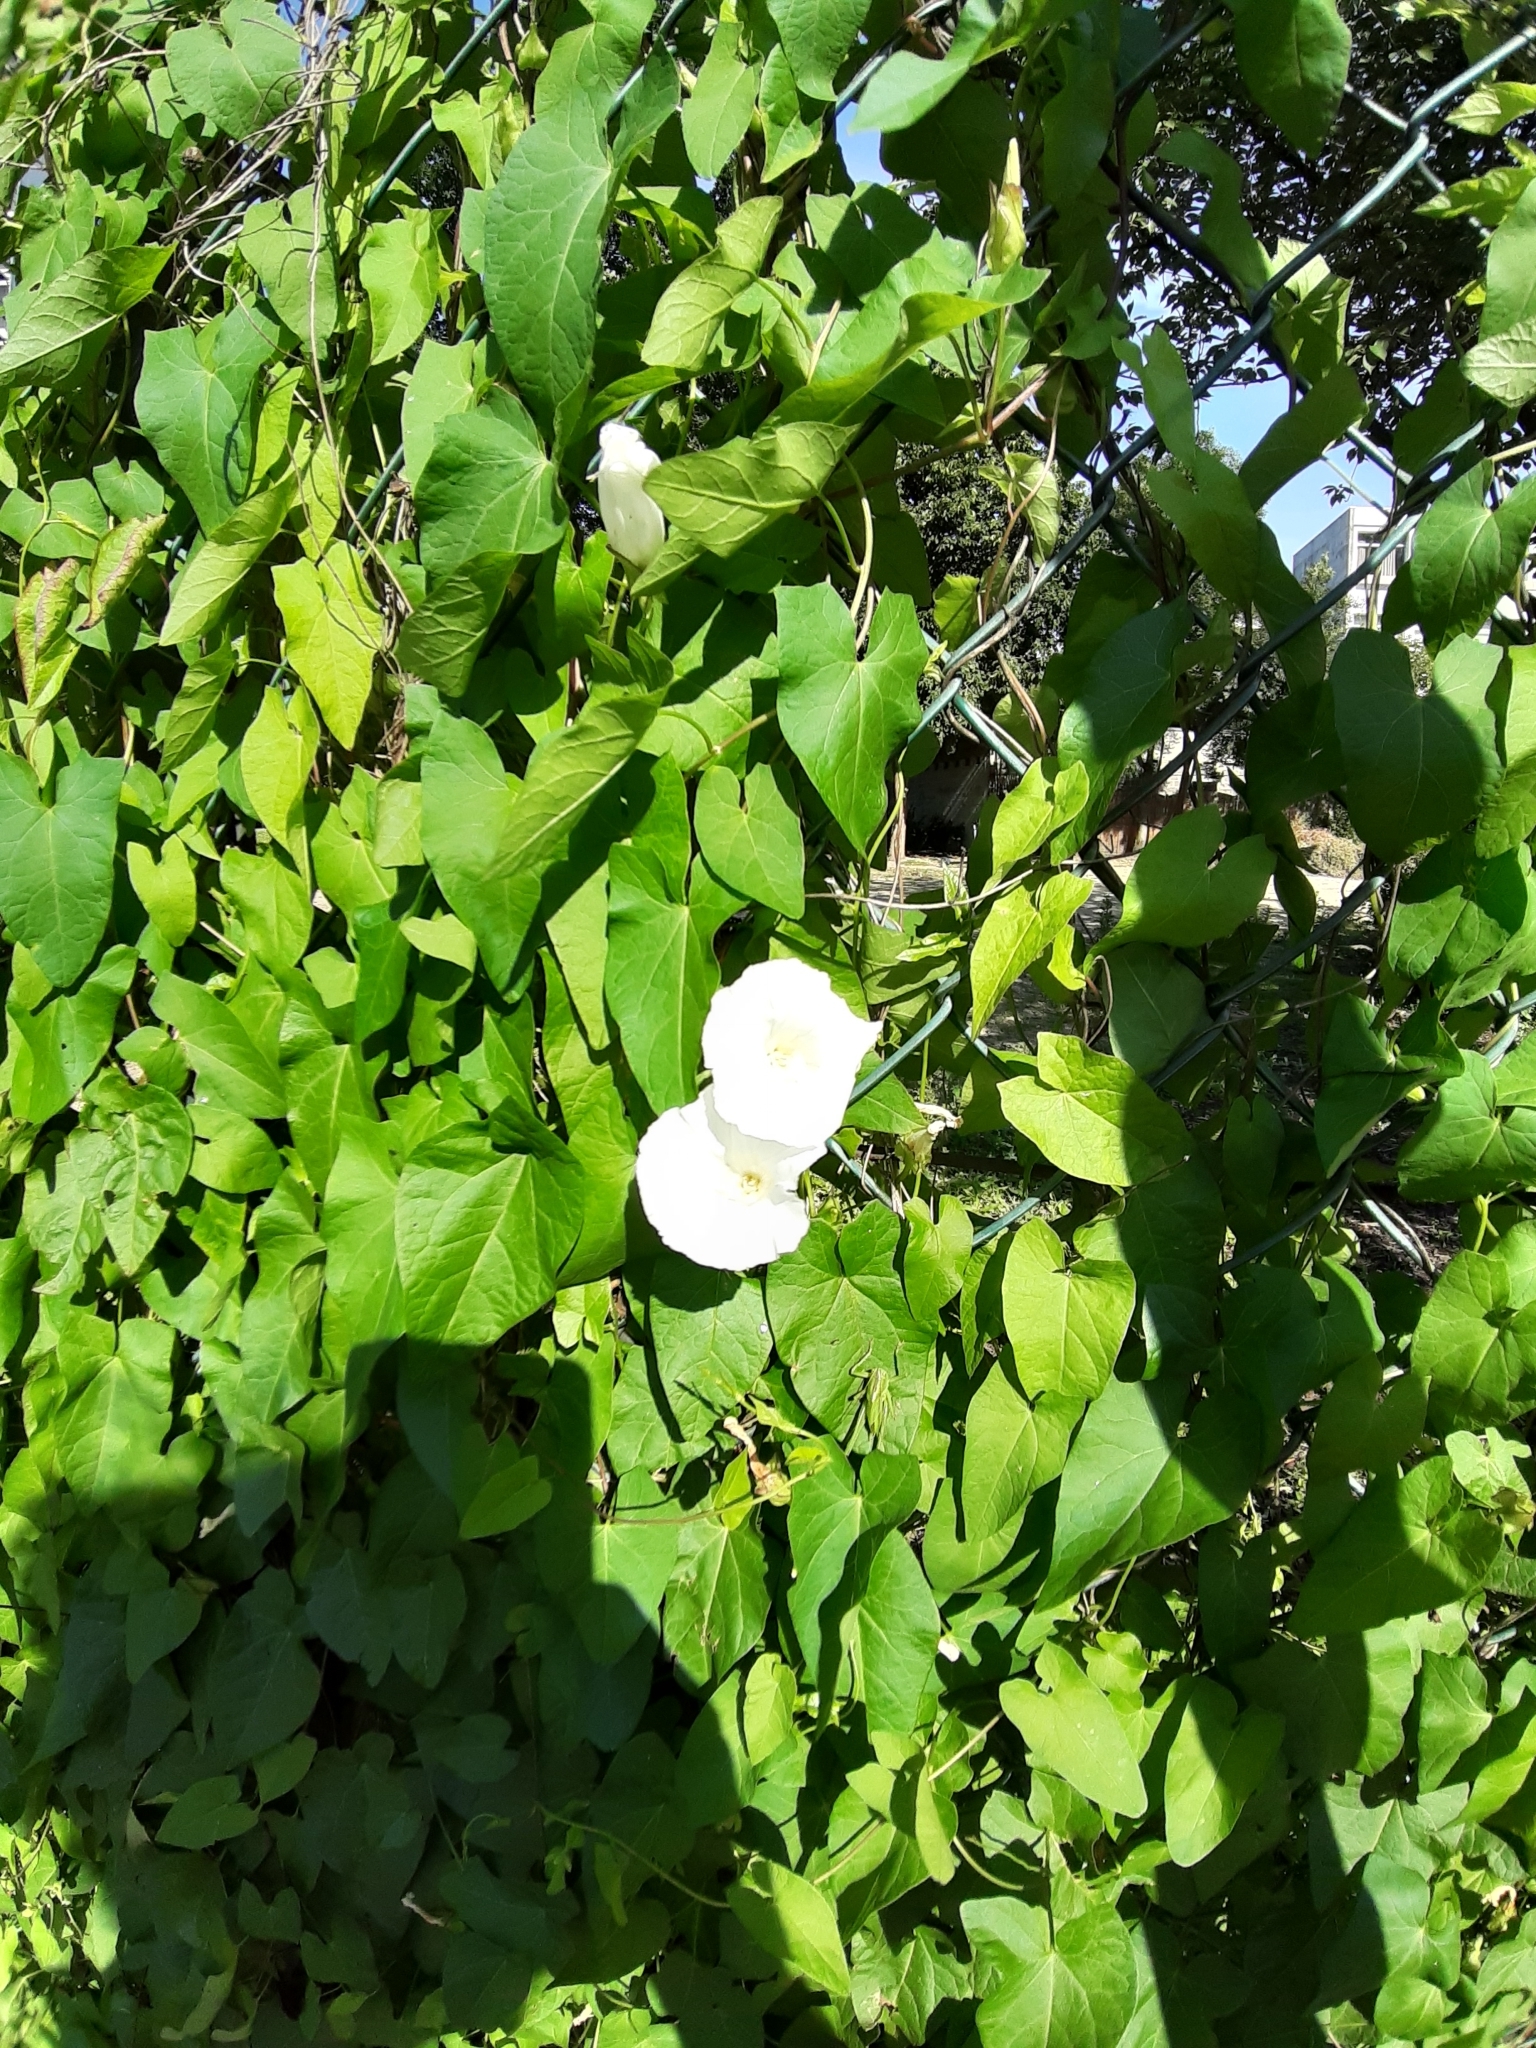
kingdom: Plantae
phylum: Tracheophyta
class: Magnoliopsida
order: Solanales
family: Convolvulaceae
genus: Calystegia
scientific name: Calystegia sepium
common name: Hedge bindweed
